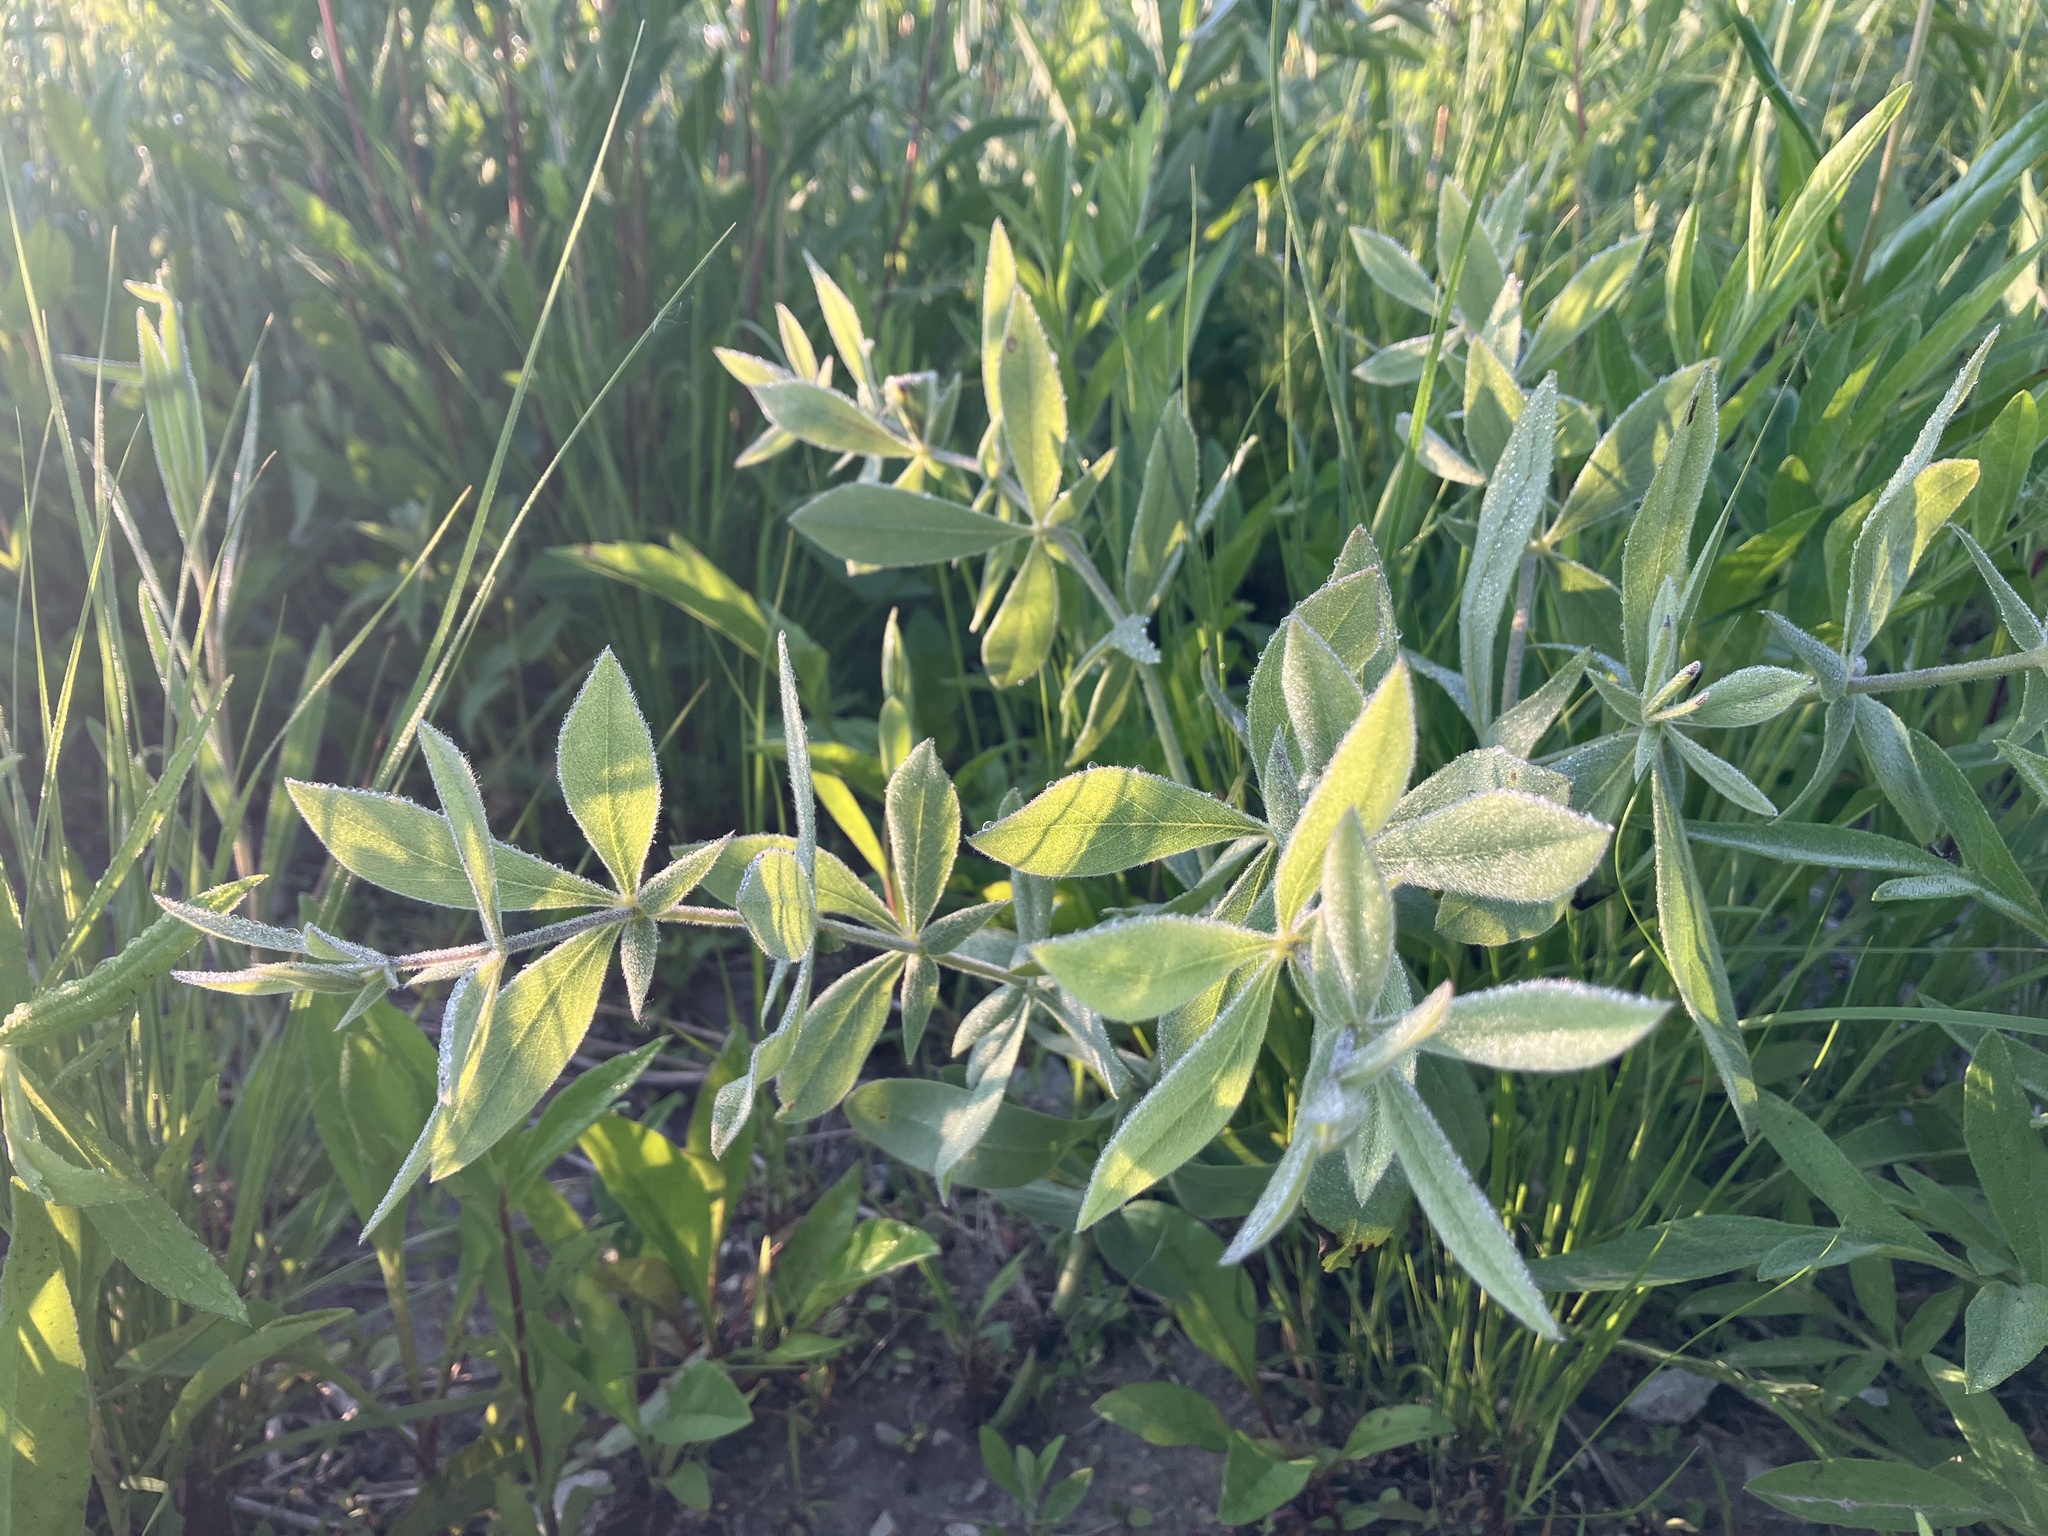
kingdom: Plantae
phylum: Tracheophyta
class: Magnoliopsida
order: Fabales
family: Fabaceae
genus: Baptisia
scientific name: Baptisia bracteata
